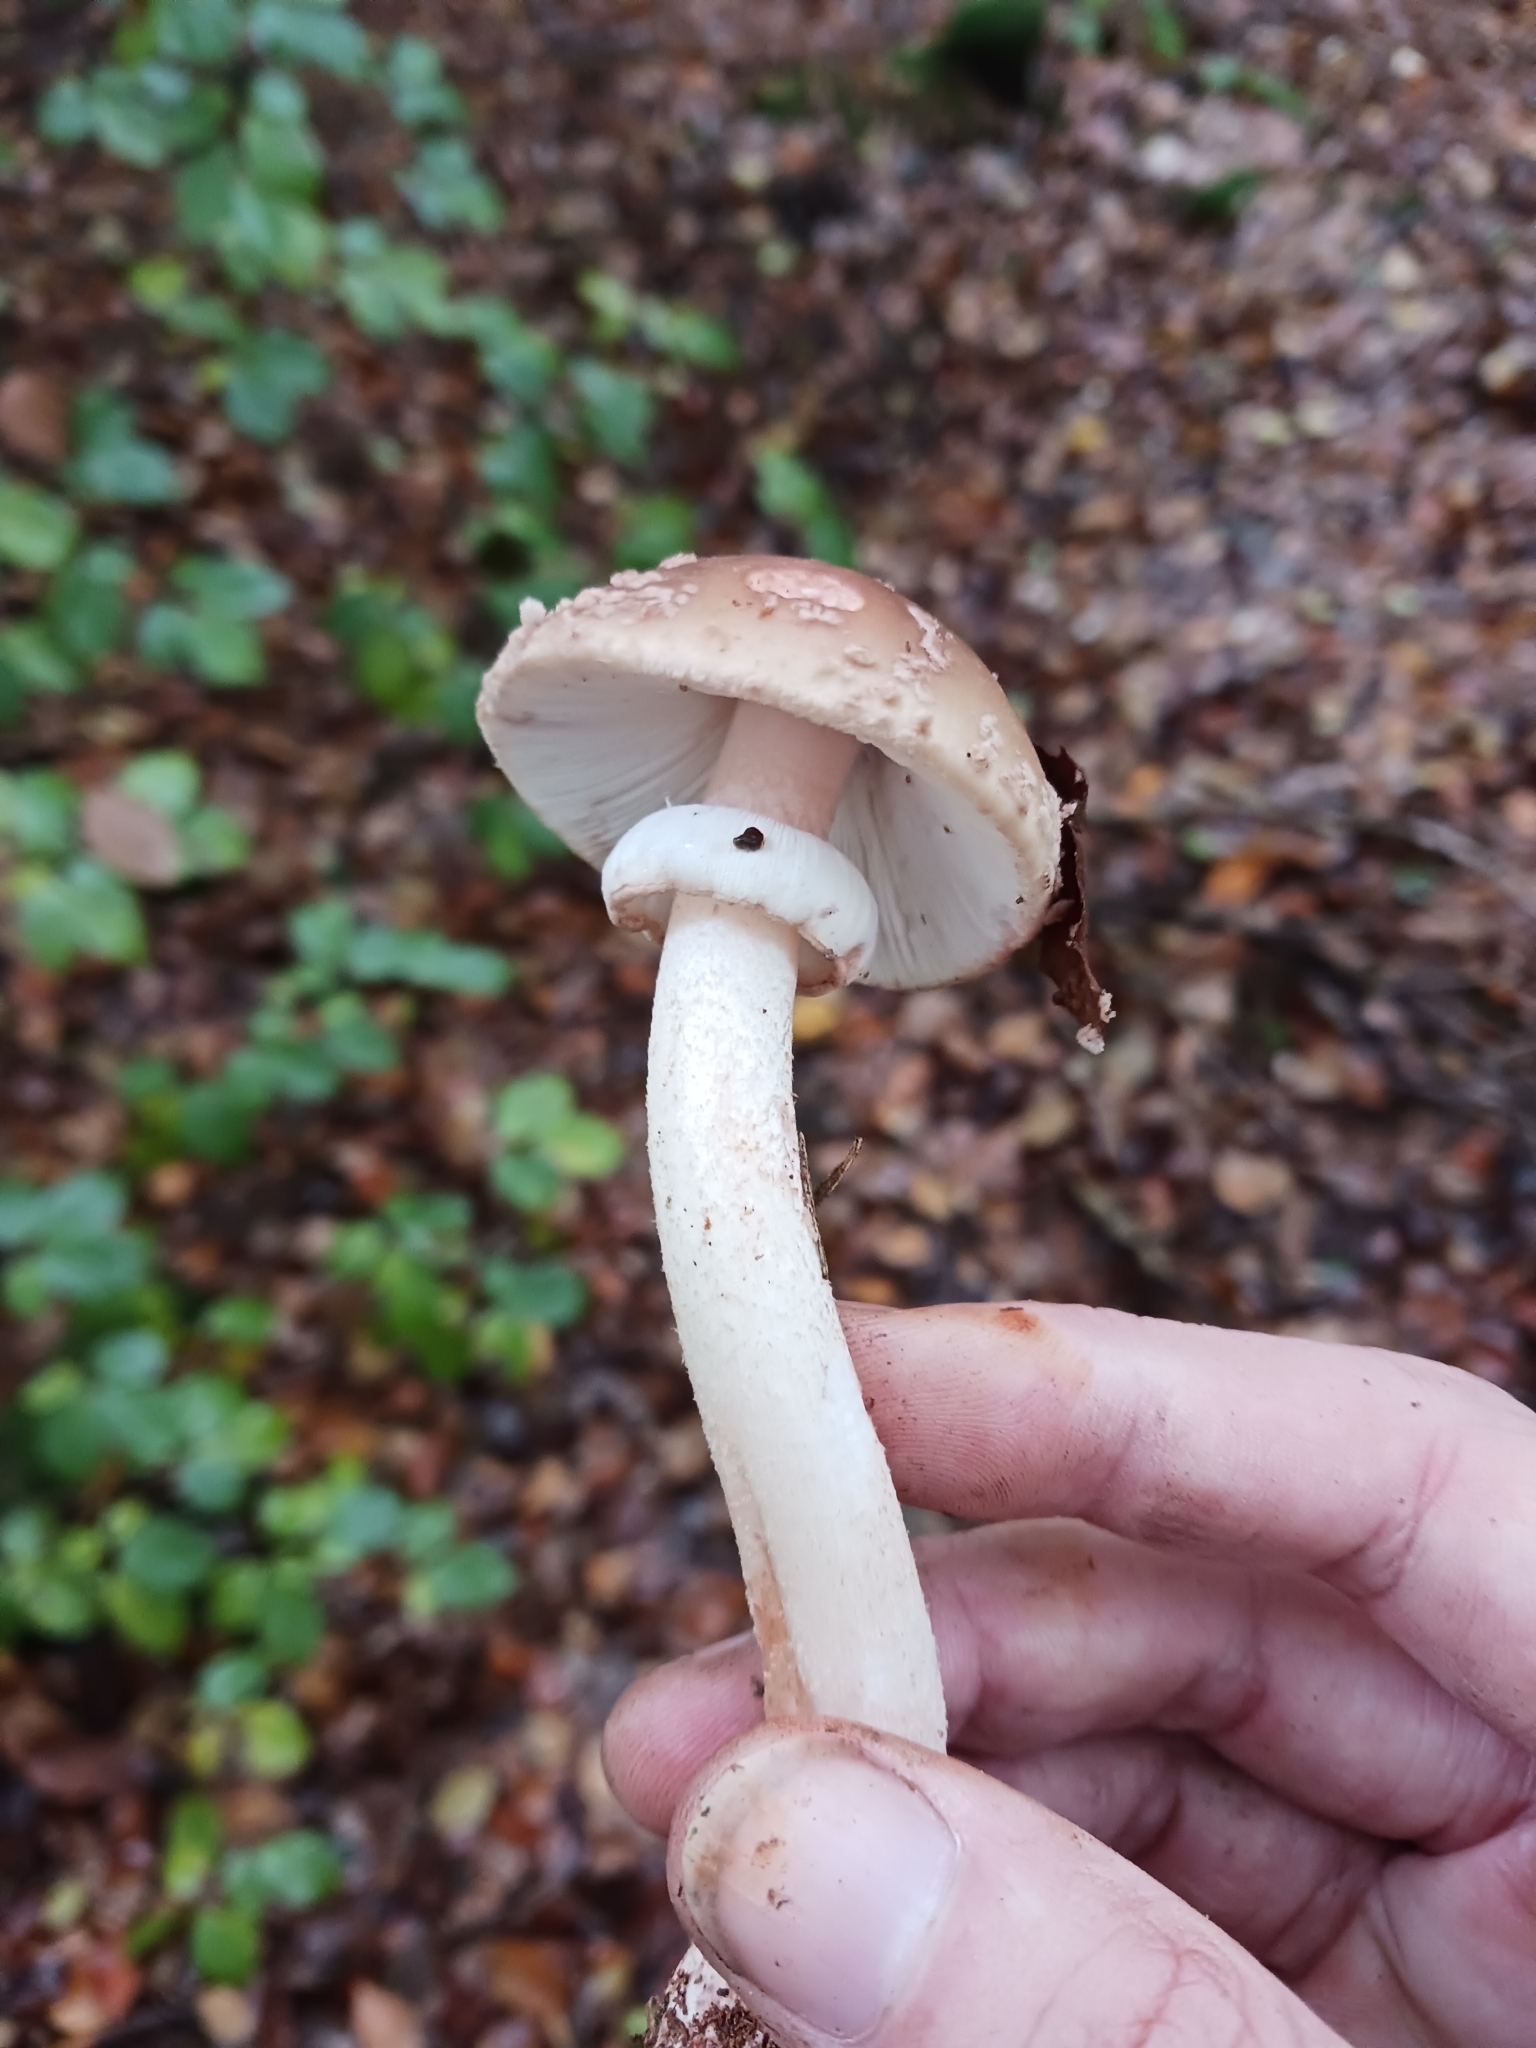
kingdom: Fungi
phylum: Basidiomycota
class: Agaricomycetes
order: Agaricales
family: Amanitaceae
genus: Amanita
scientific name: Amanita rubescens
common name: Blusher
